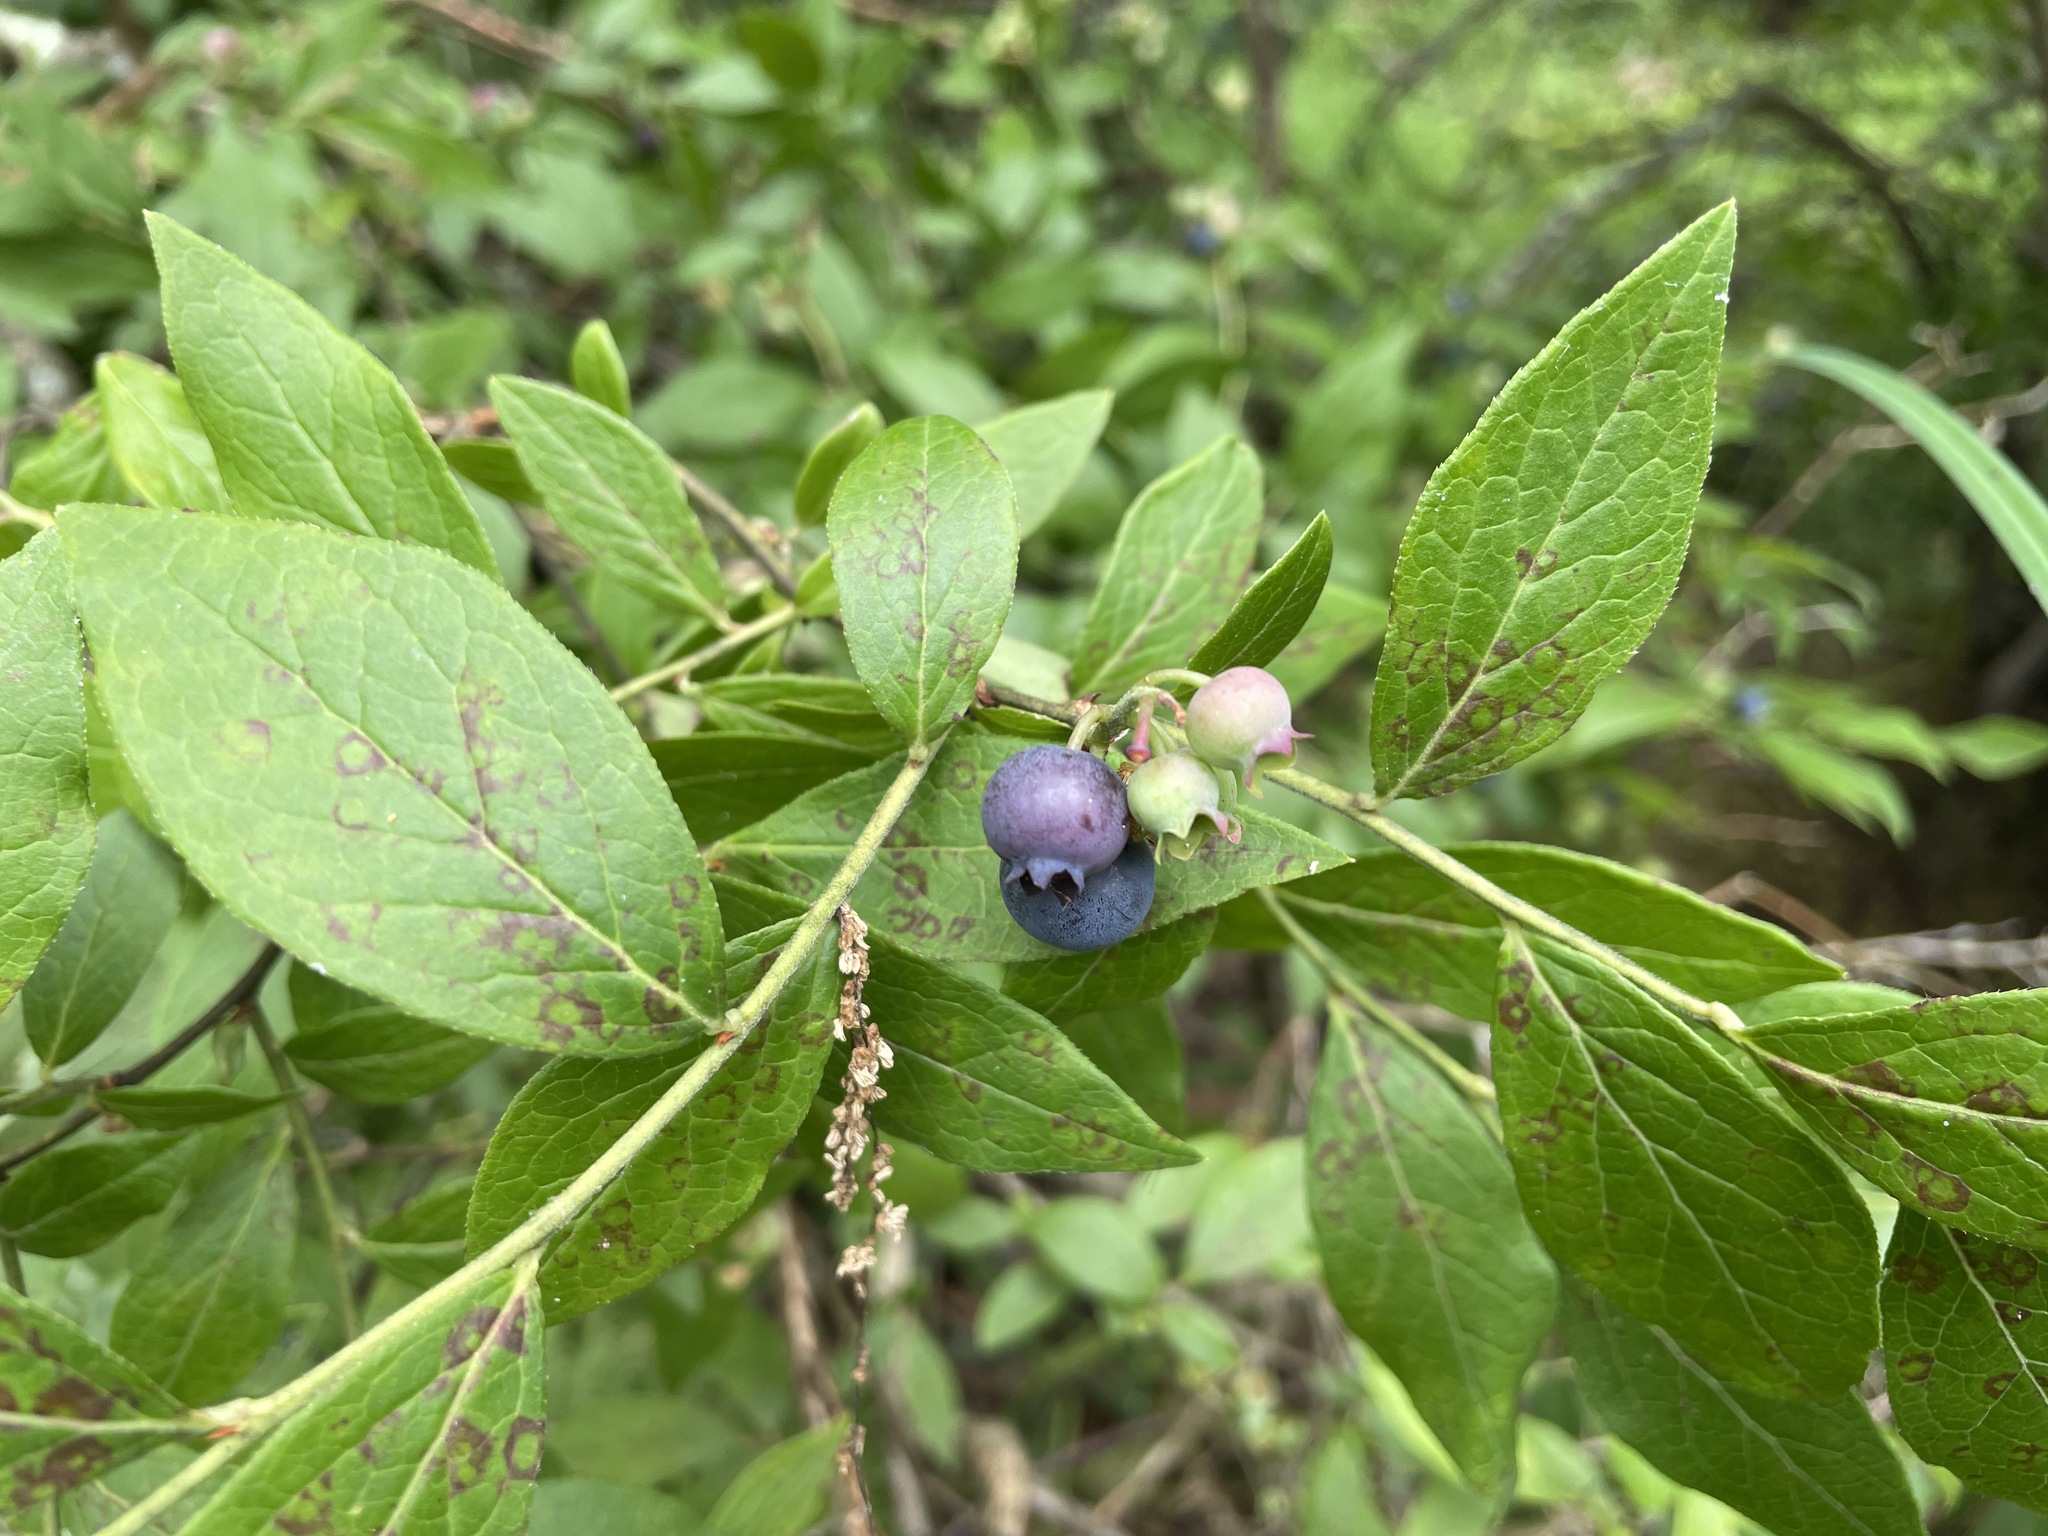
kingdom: Plantae
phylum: Tracheophyta
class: Magnoliopsida
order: Ericales
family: Ericaceae
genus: Vaccinium
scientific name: Vaccinium corymbosum
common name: Blueberry
